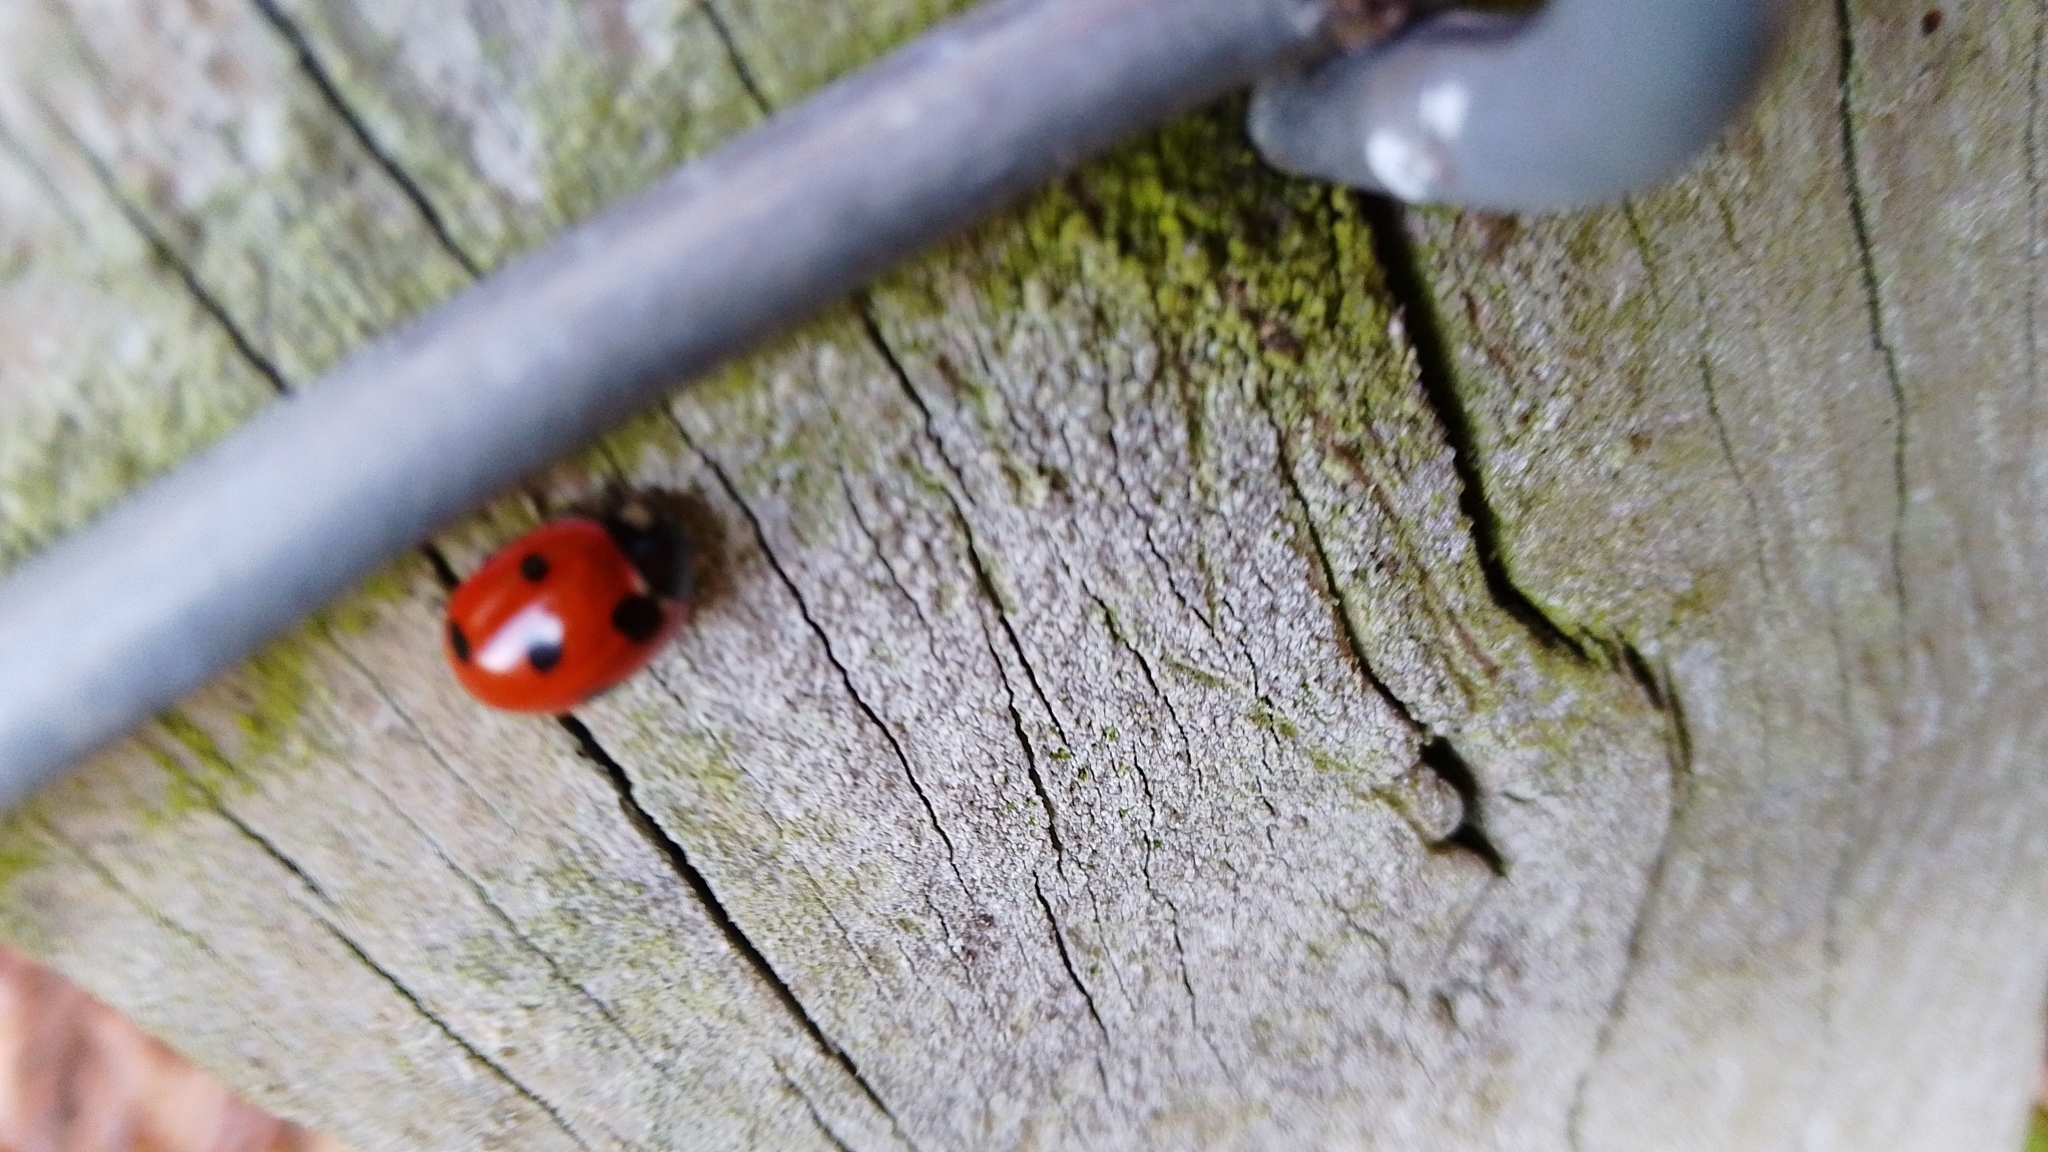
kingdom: Animalia
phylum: Arthropoda
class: Insecta
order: Coleoptera
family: Coccinellidae
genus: Coccinella
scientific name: Coccinella septempunctata
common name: Sevenspotted lady beetle
